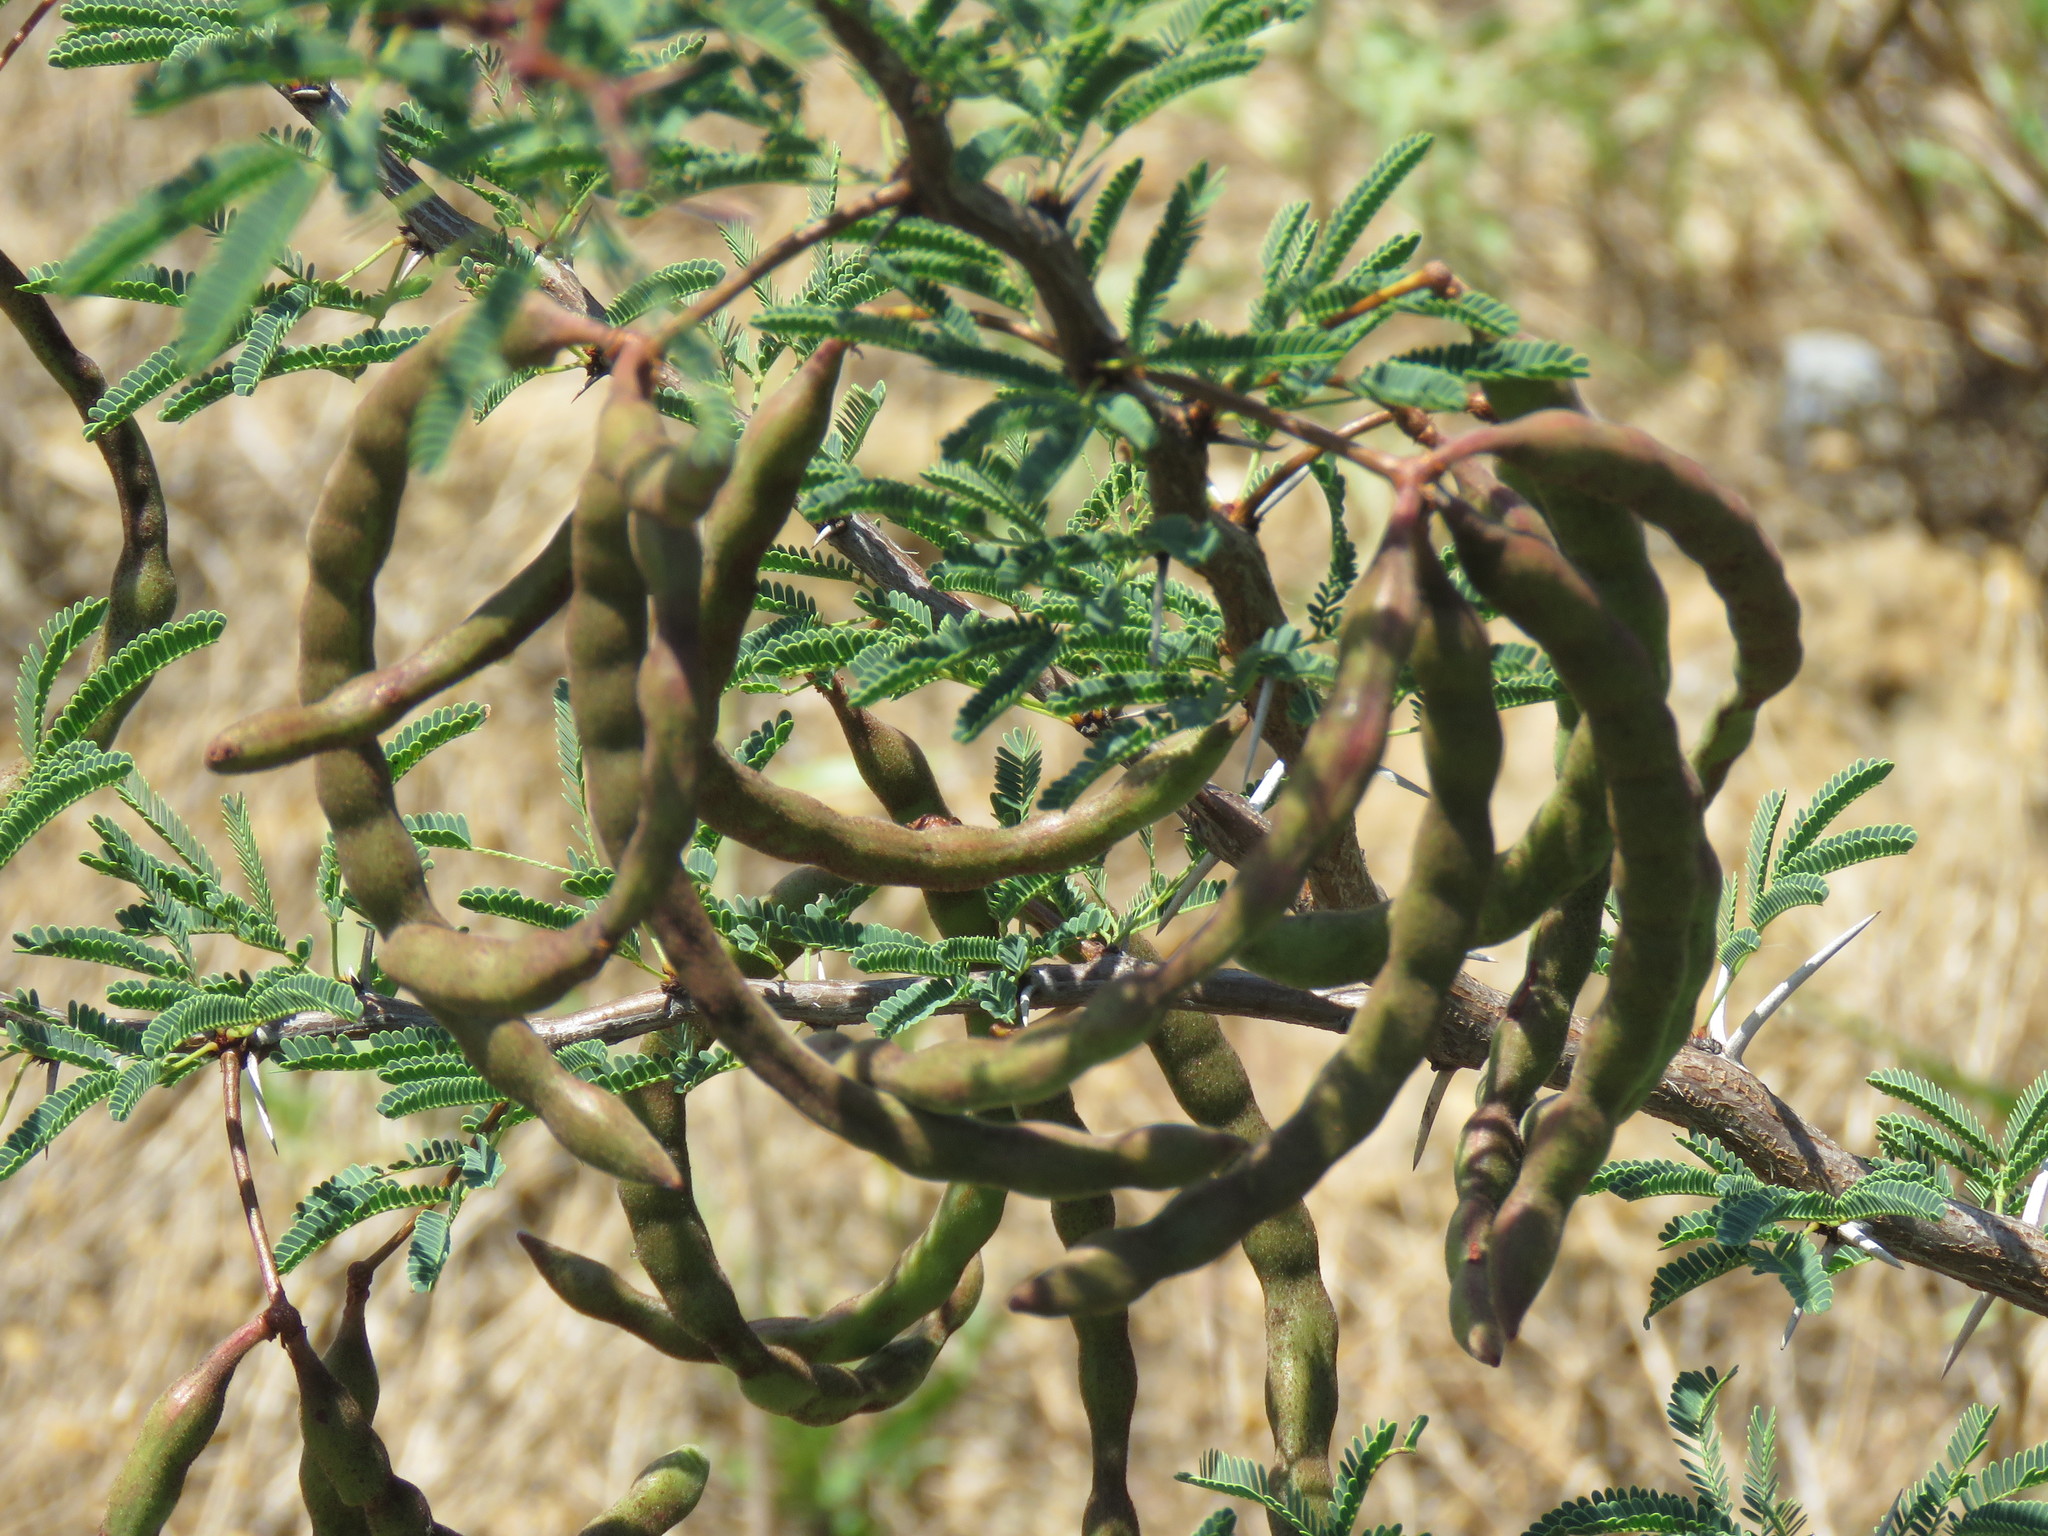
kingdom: Plantae
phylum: Tracheophyta
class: Magnoliopsida
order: Fabales
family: Fabaceae
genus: Vachellia
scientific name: Vachellia schaffneri
